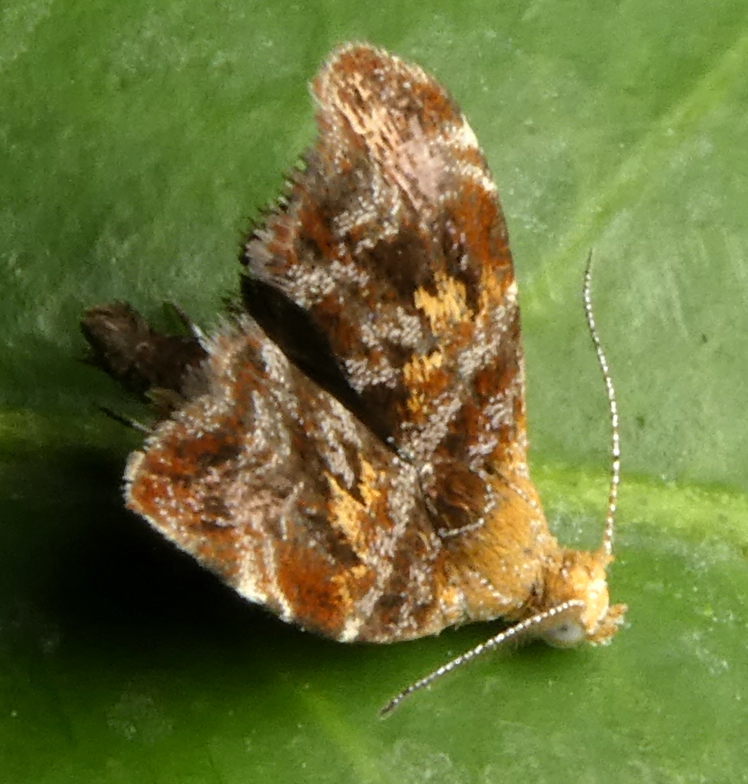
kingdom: Animalia
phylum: Arthropoda
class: Insecta
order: Lepidoptera
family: Choreutidae
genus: Choreutis
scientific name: Choreutis sexfasciella
